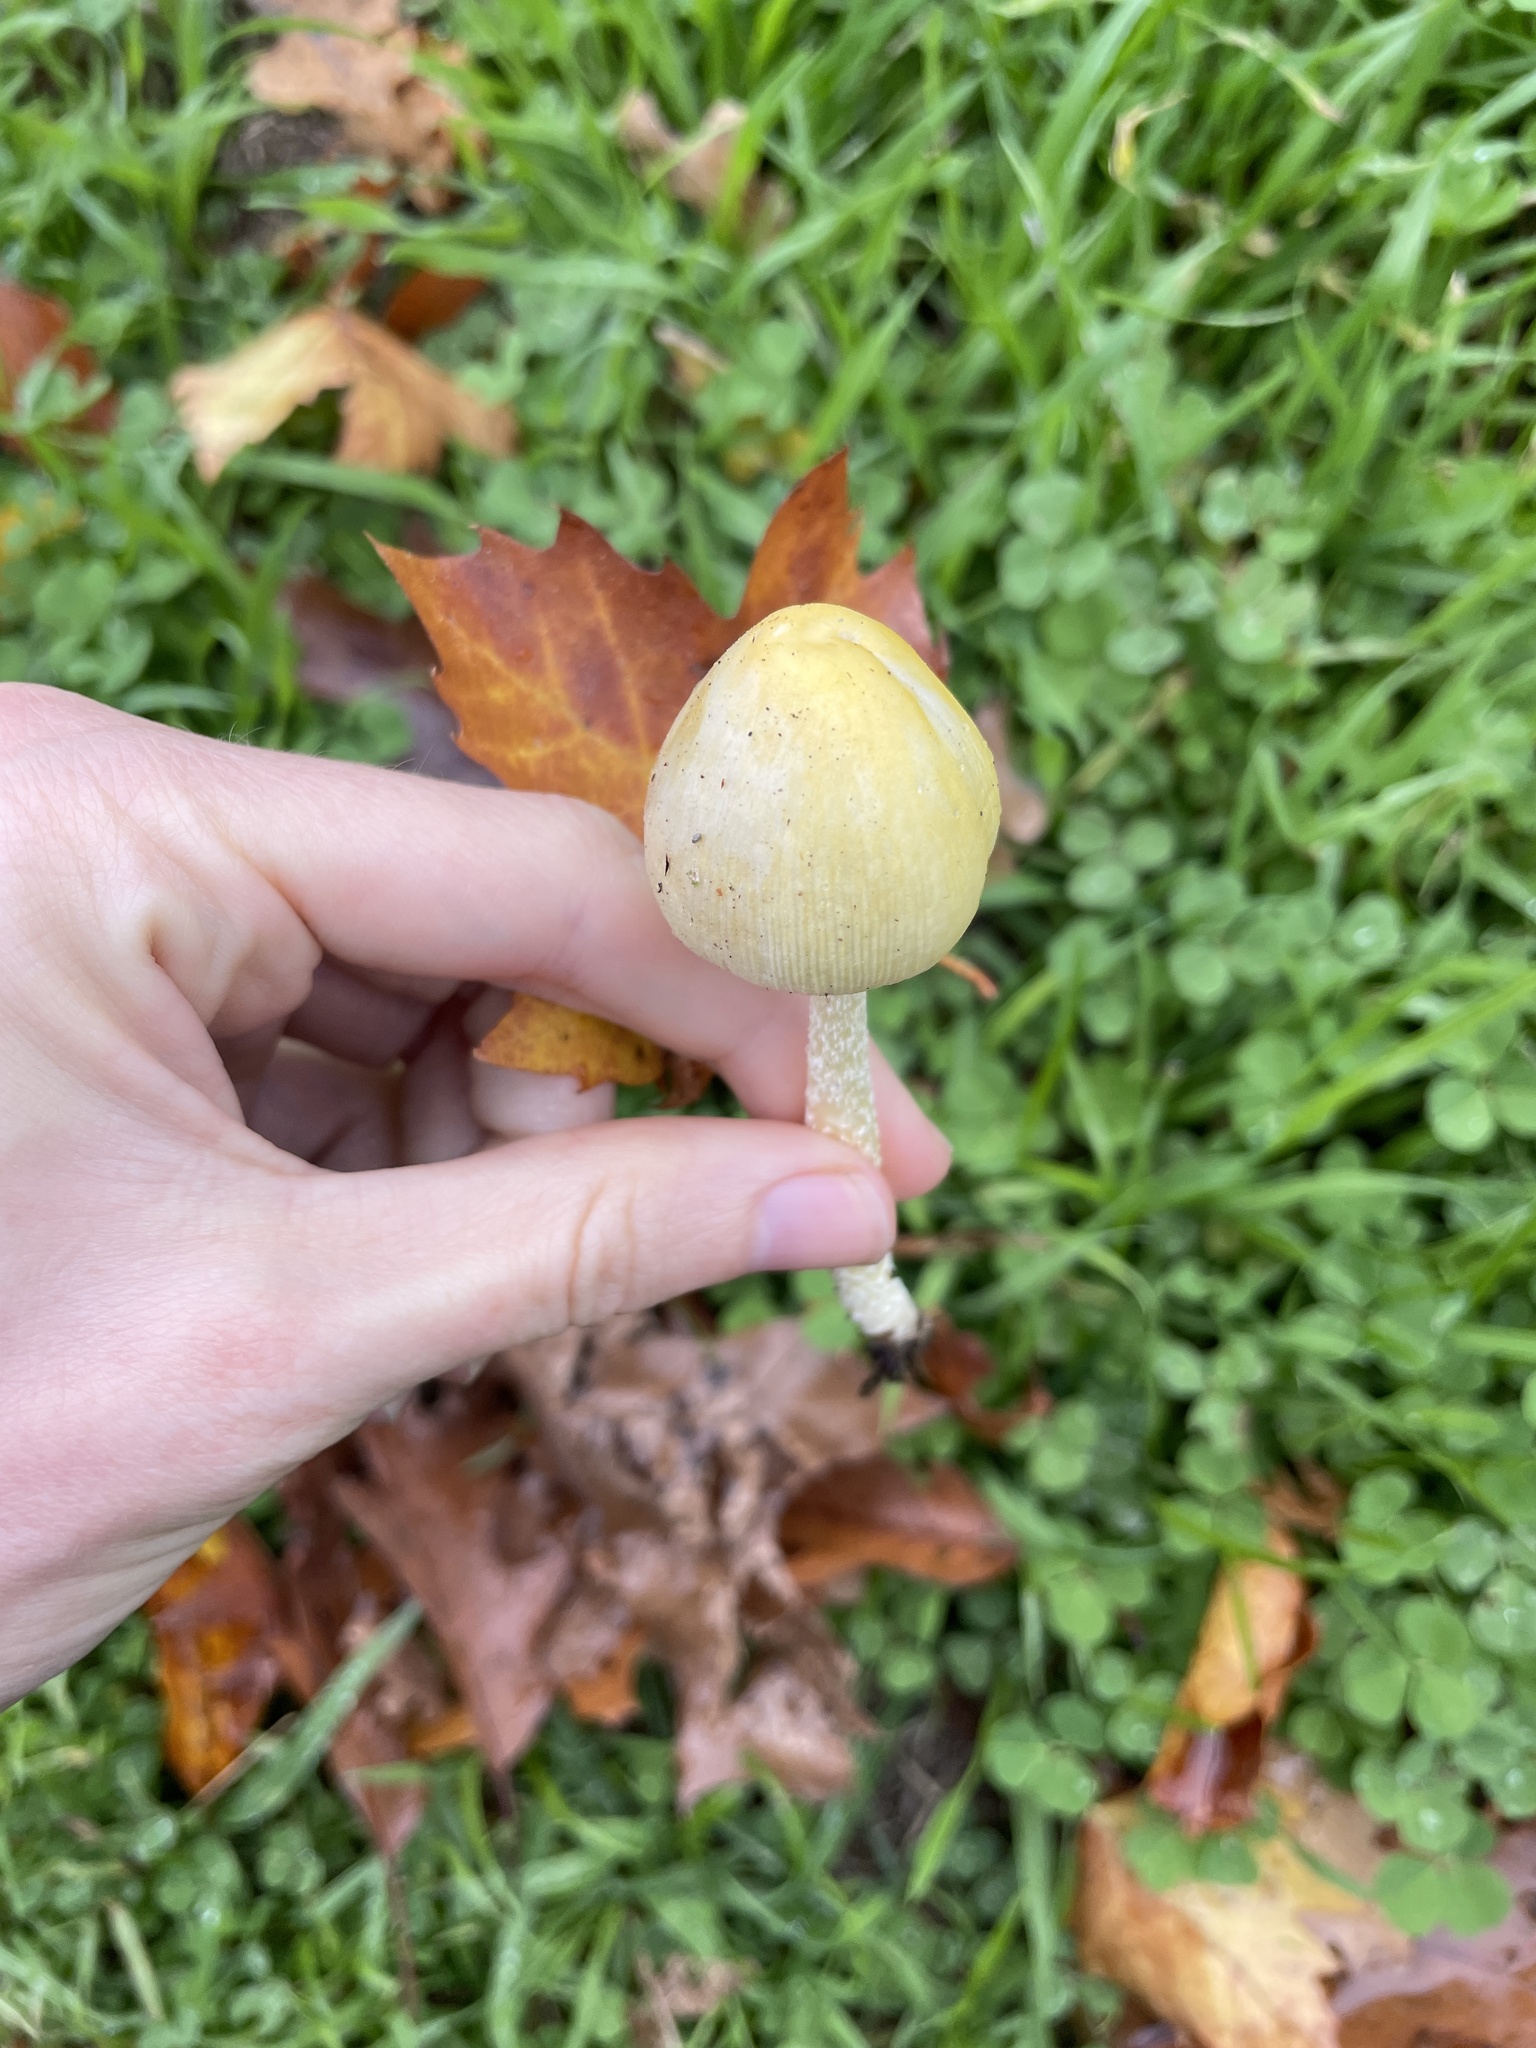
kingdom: Fungi
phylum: Basidiomycota
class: Agaricomycetes
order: Agaricales
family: Bolbitiaceae
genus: Bolbitius
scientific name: Bolbitius titubans
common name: Yellow fieldcap
